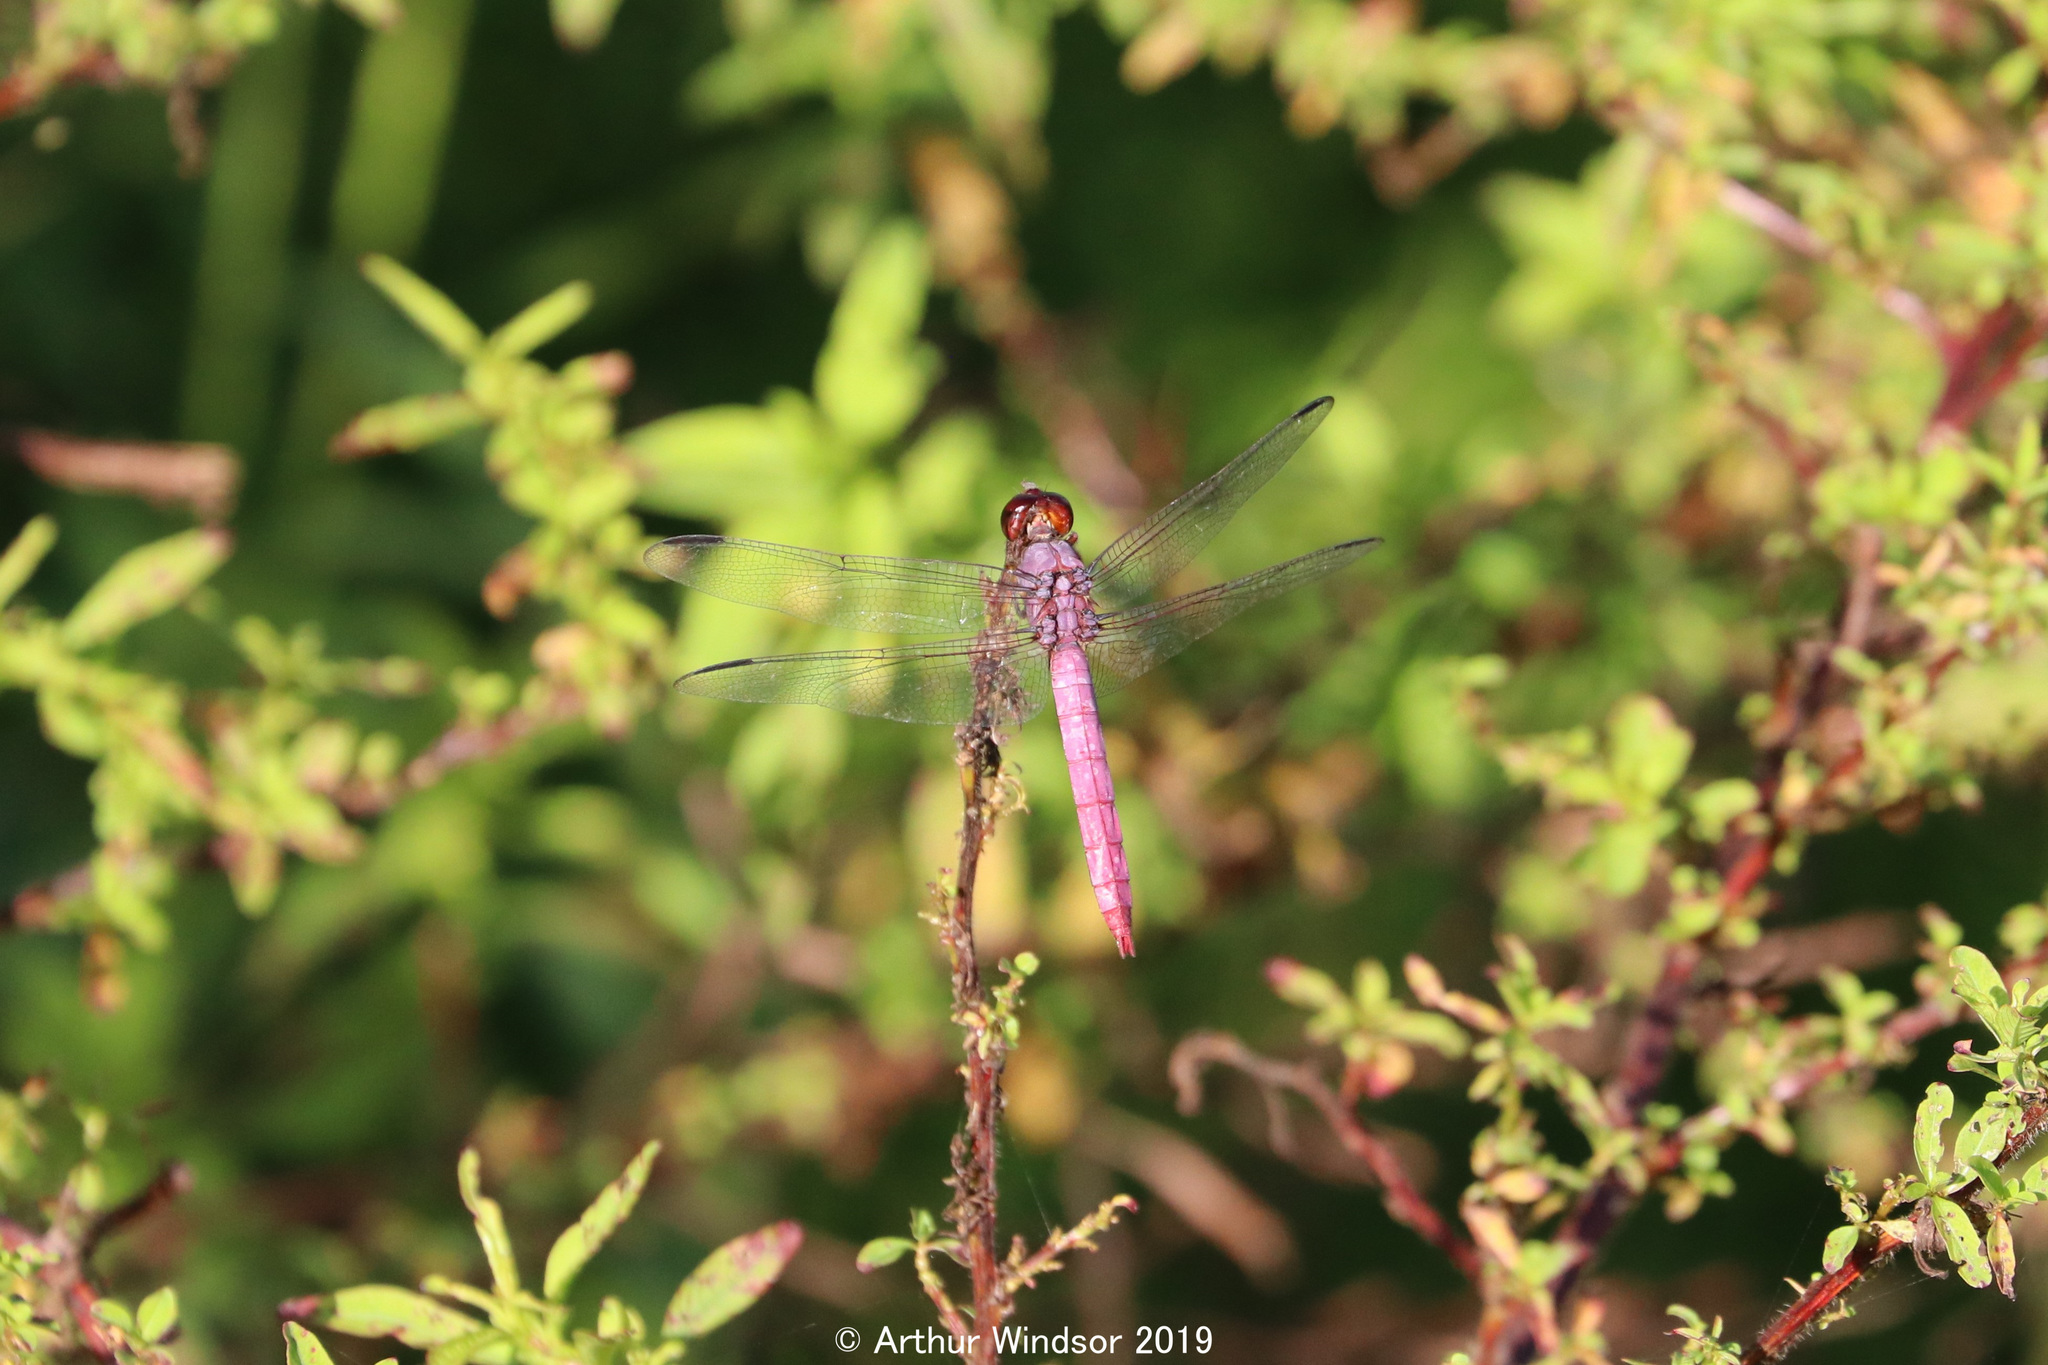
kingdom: Animalia
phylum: Arthropoda
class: Insecta
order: Odonata
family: Libellulidae
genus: Orthemis
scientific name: Orthemis ferruginea
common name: Roseate skimmer
